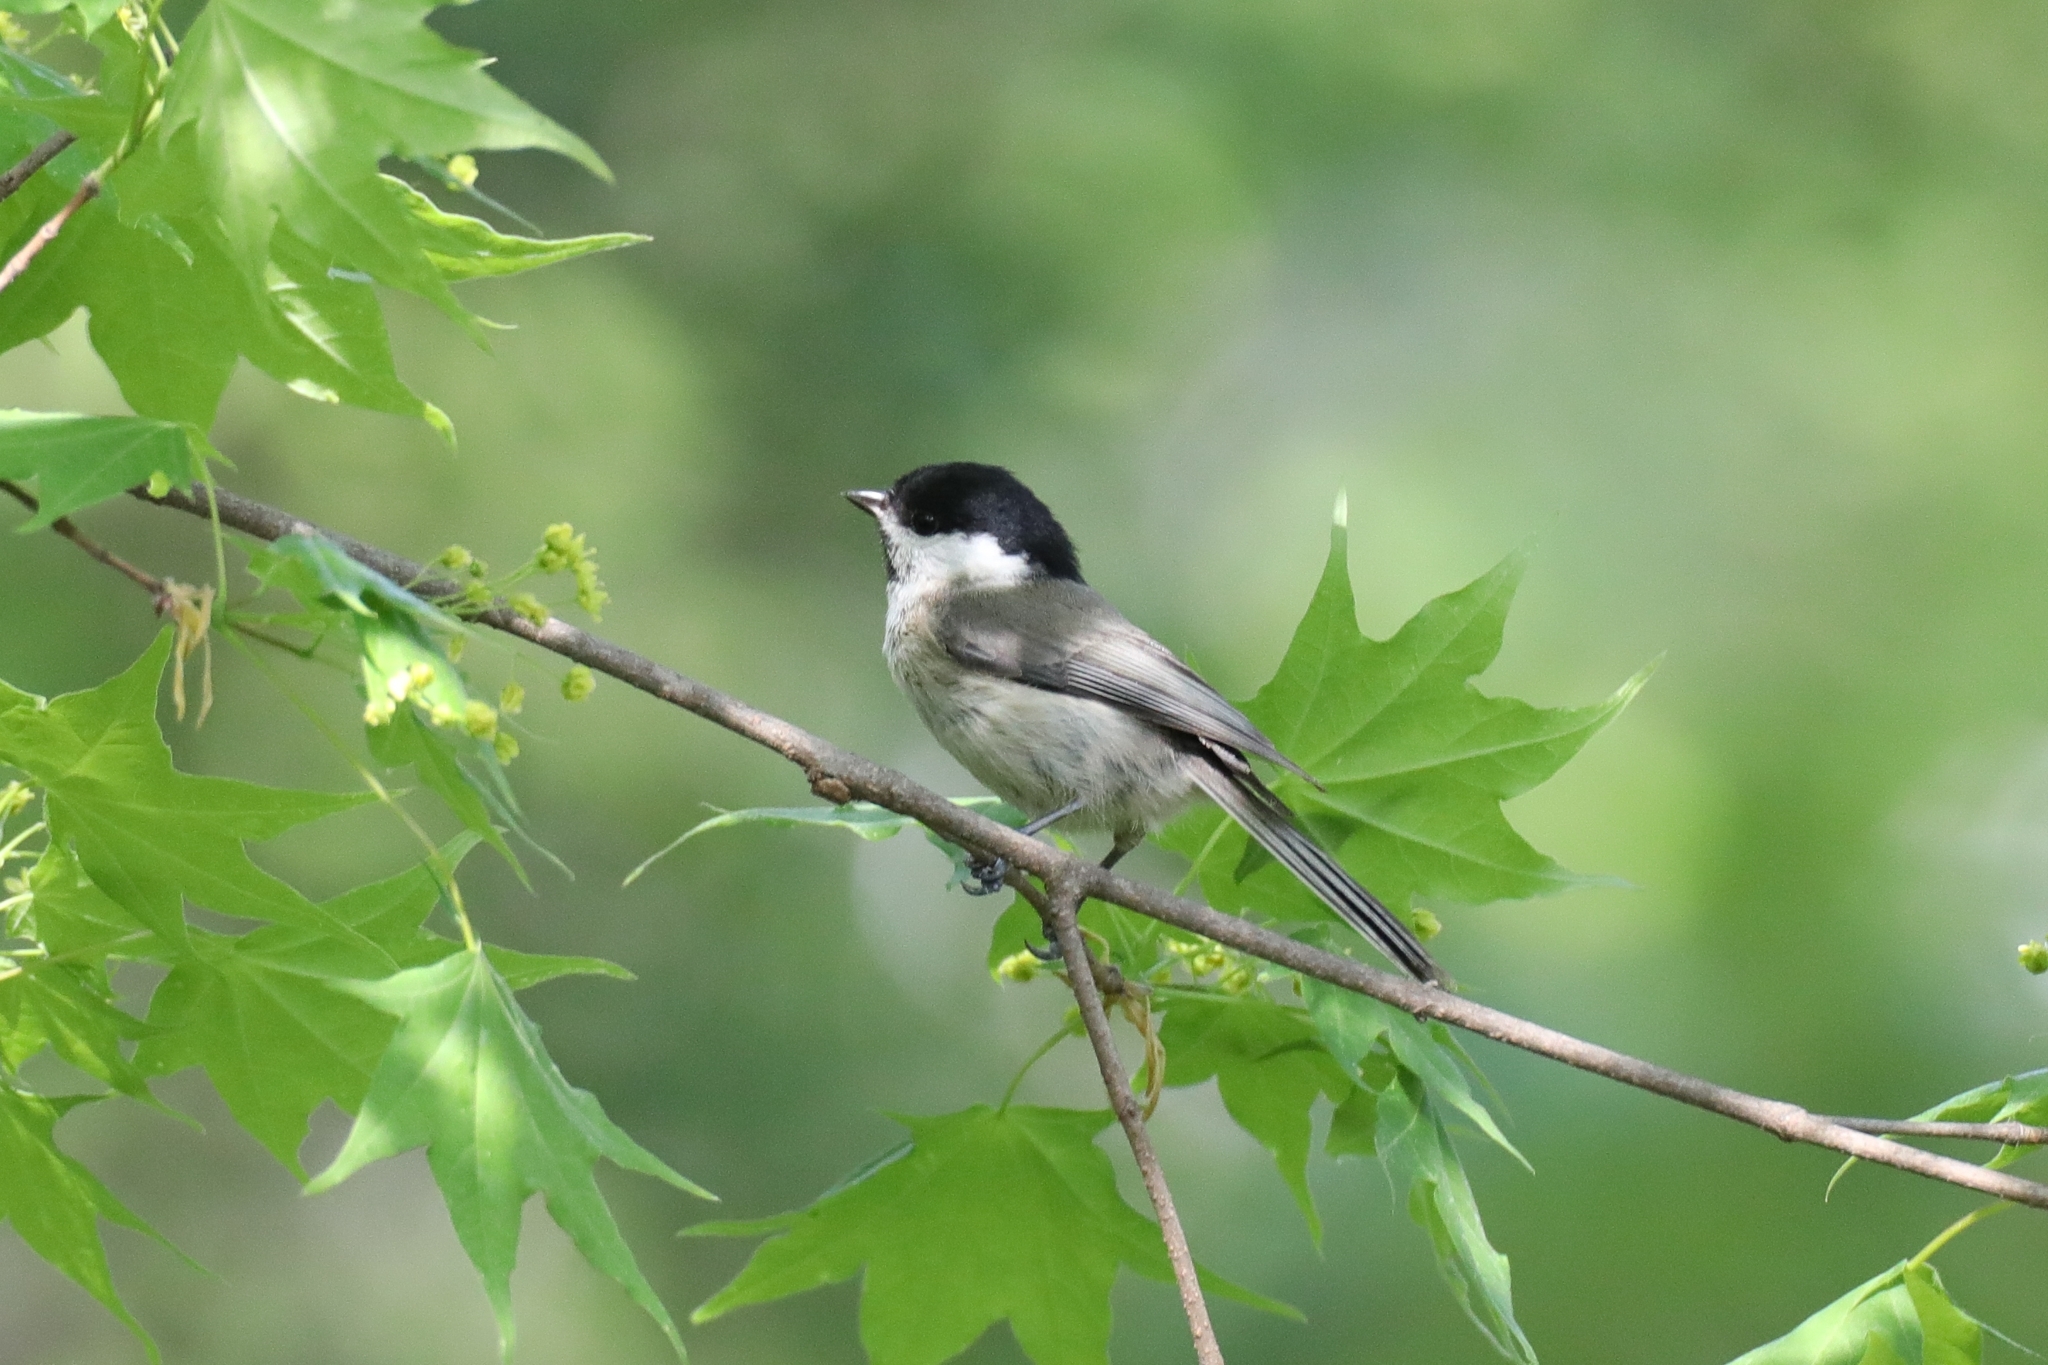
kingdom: Animalia
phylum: Chordata
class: Aves
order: Passeriformes
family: Paridae
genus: Poecile
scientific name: Poecile palustris
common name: Marsh tit
